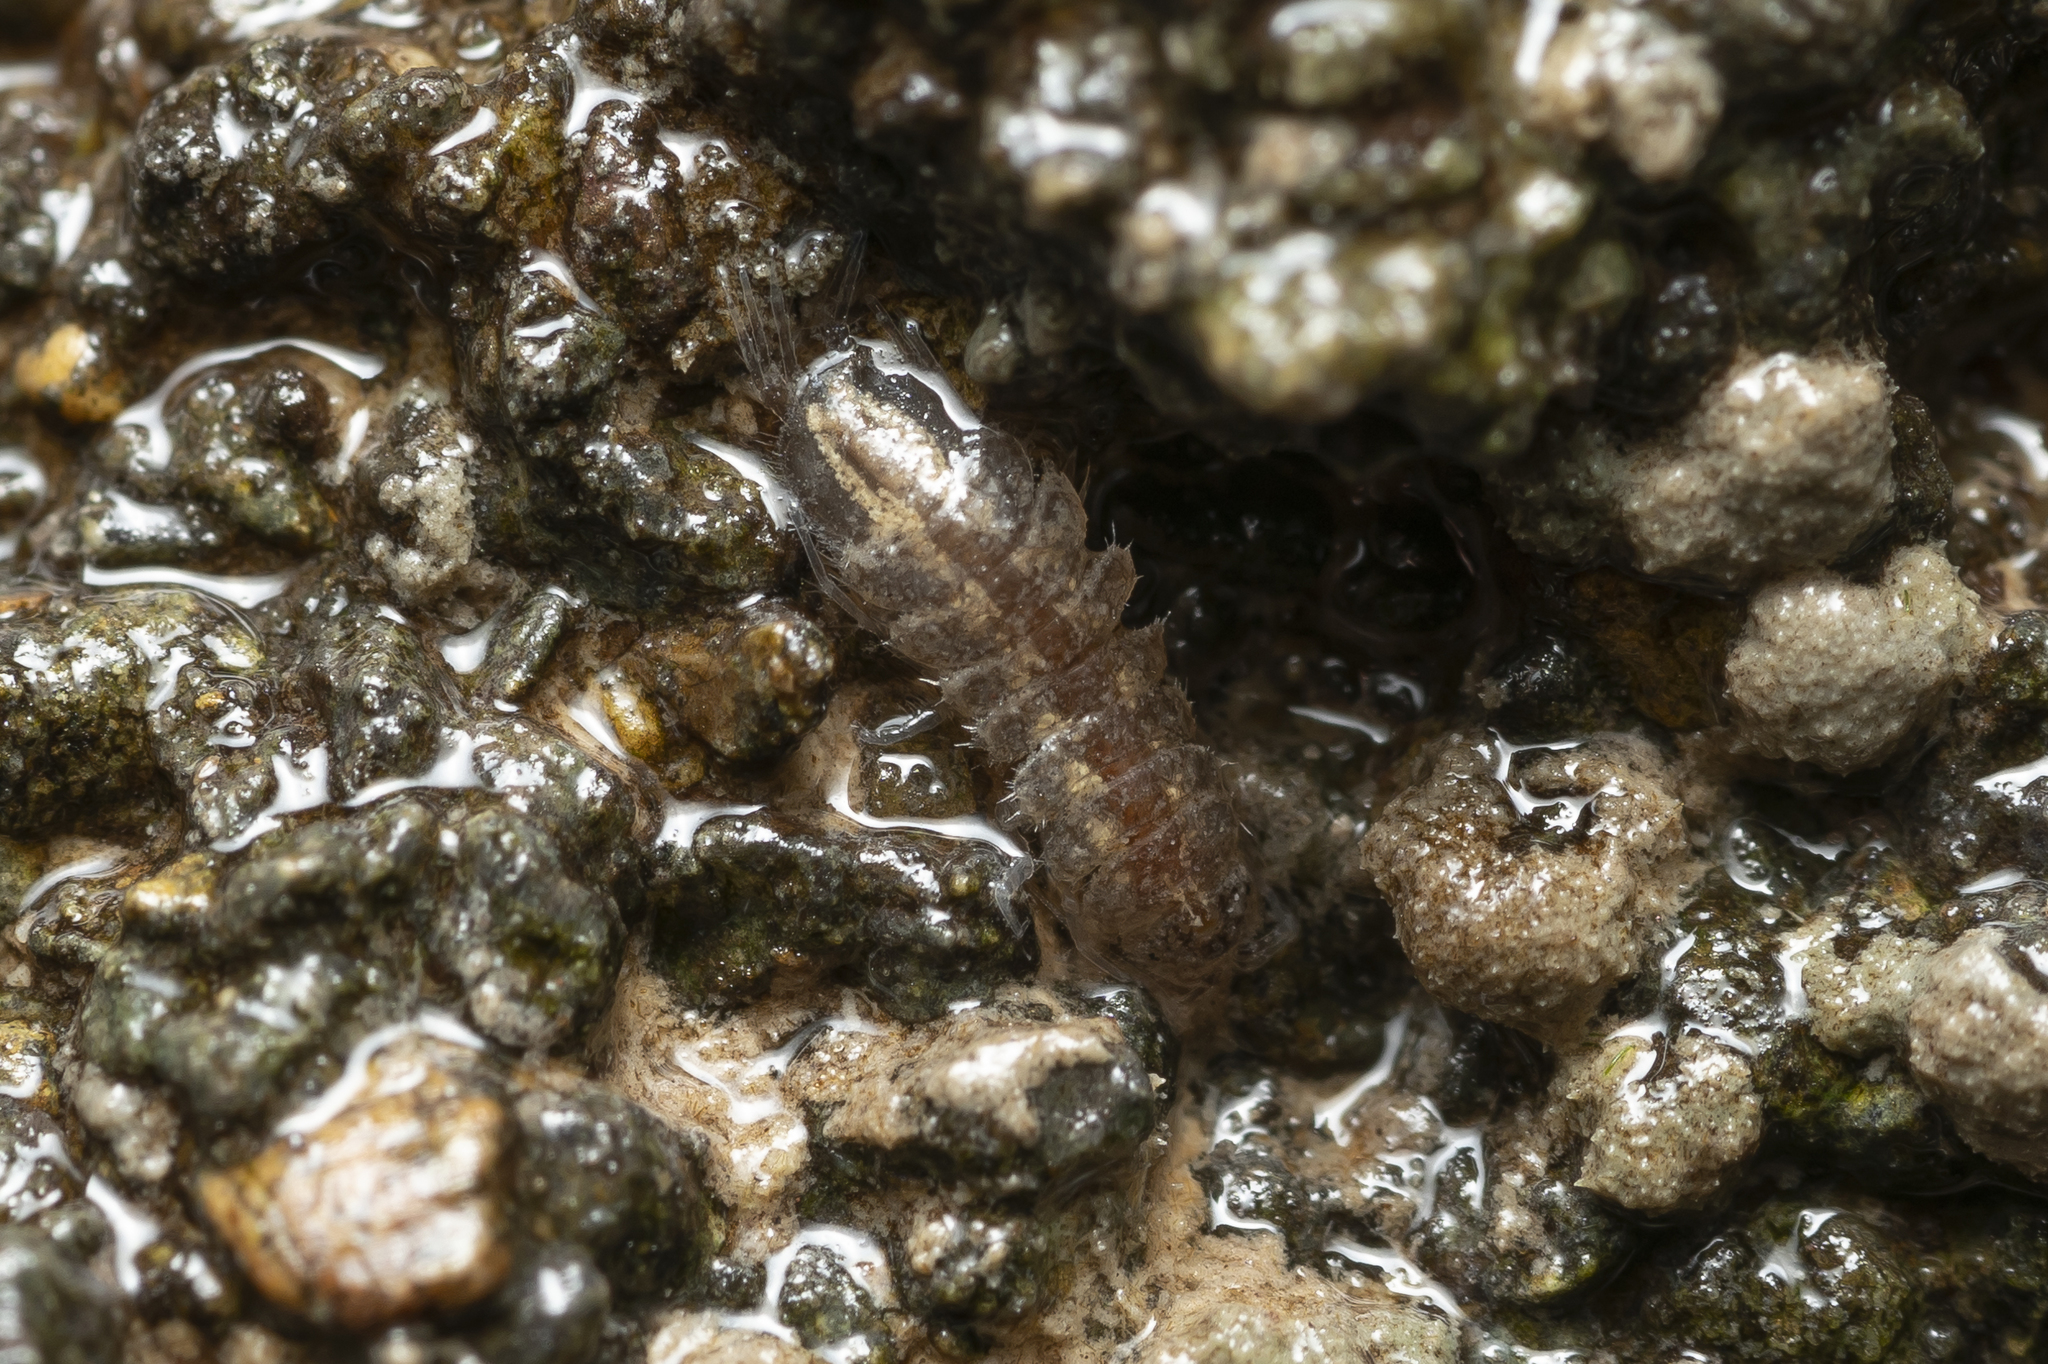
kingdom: Animalia
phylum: Arthropoda
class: Malacostraca
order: Isopoda
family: Asellidae
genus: Proasellus
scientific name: Proasellus coxalis
